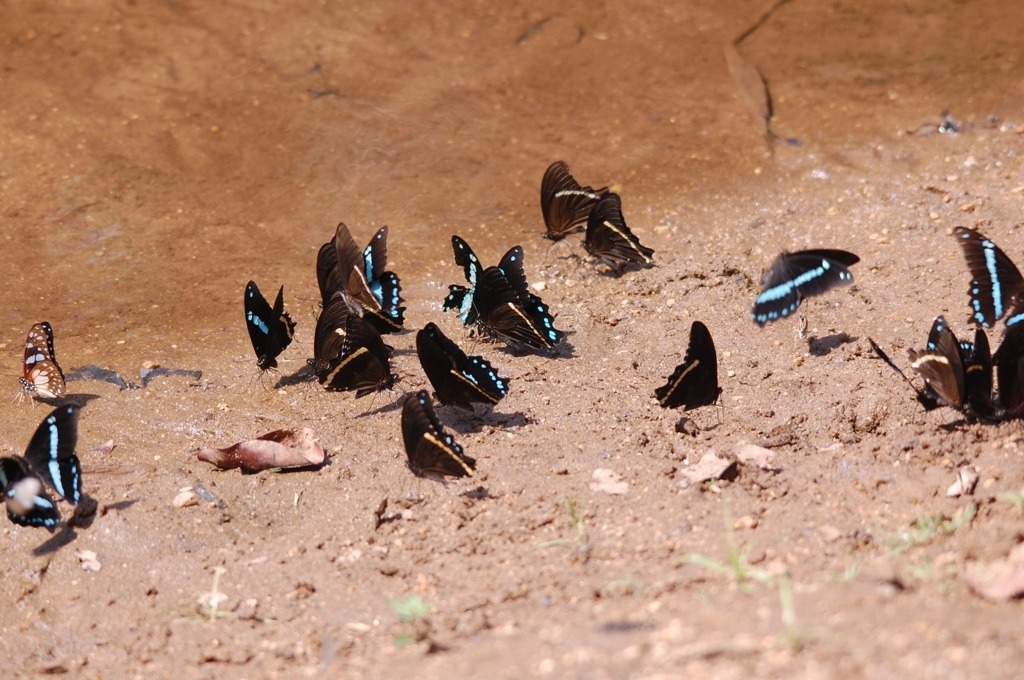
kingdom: Animalia
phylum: Arthropoda
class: Insecta
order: Lepidoptera
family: Papilionidae
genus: Papilio
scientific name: Papilio nireus
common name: Greenbanded swallowtail
